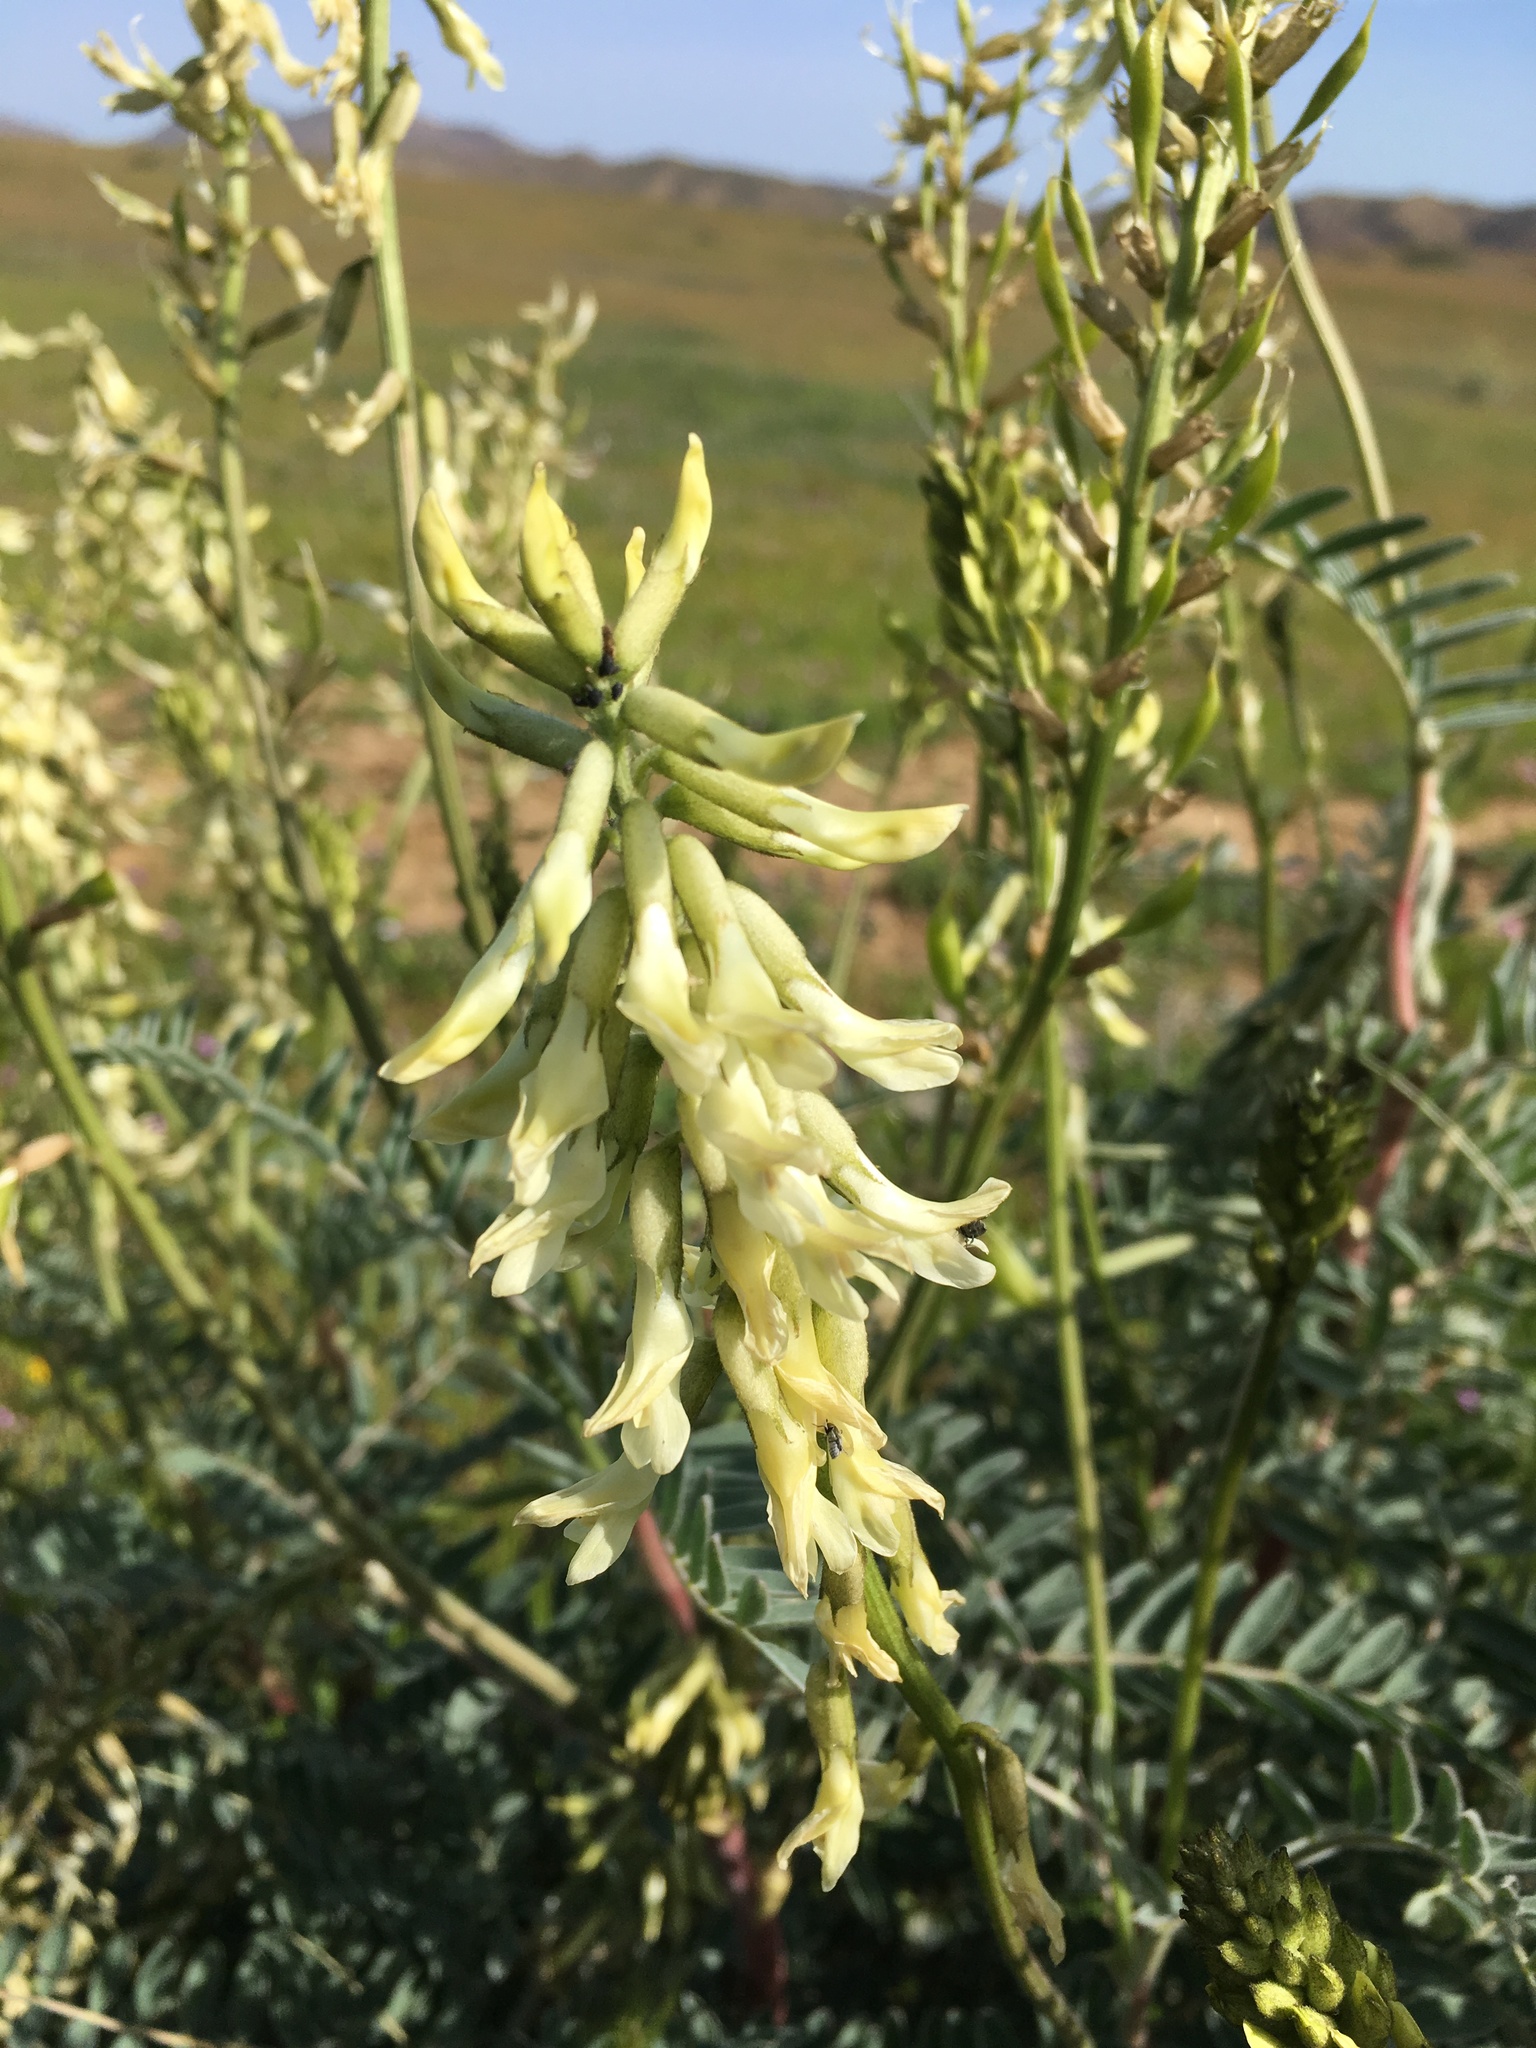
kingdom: Plantae
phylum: Tracheophyta
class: Magnoliopsida
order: Fabales
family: Fabaceae
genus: Astragalus
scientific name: Astragalus oxyphysus
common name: Stanislaus milk-vetch
